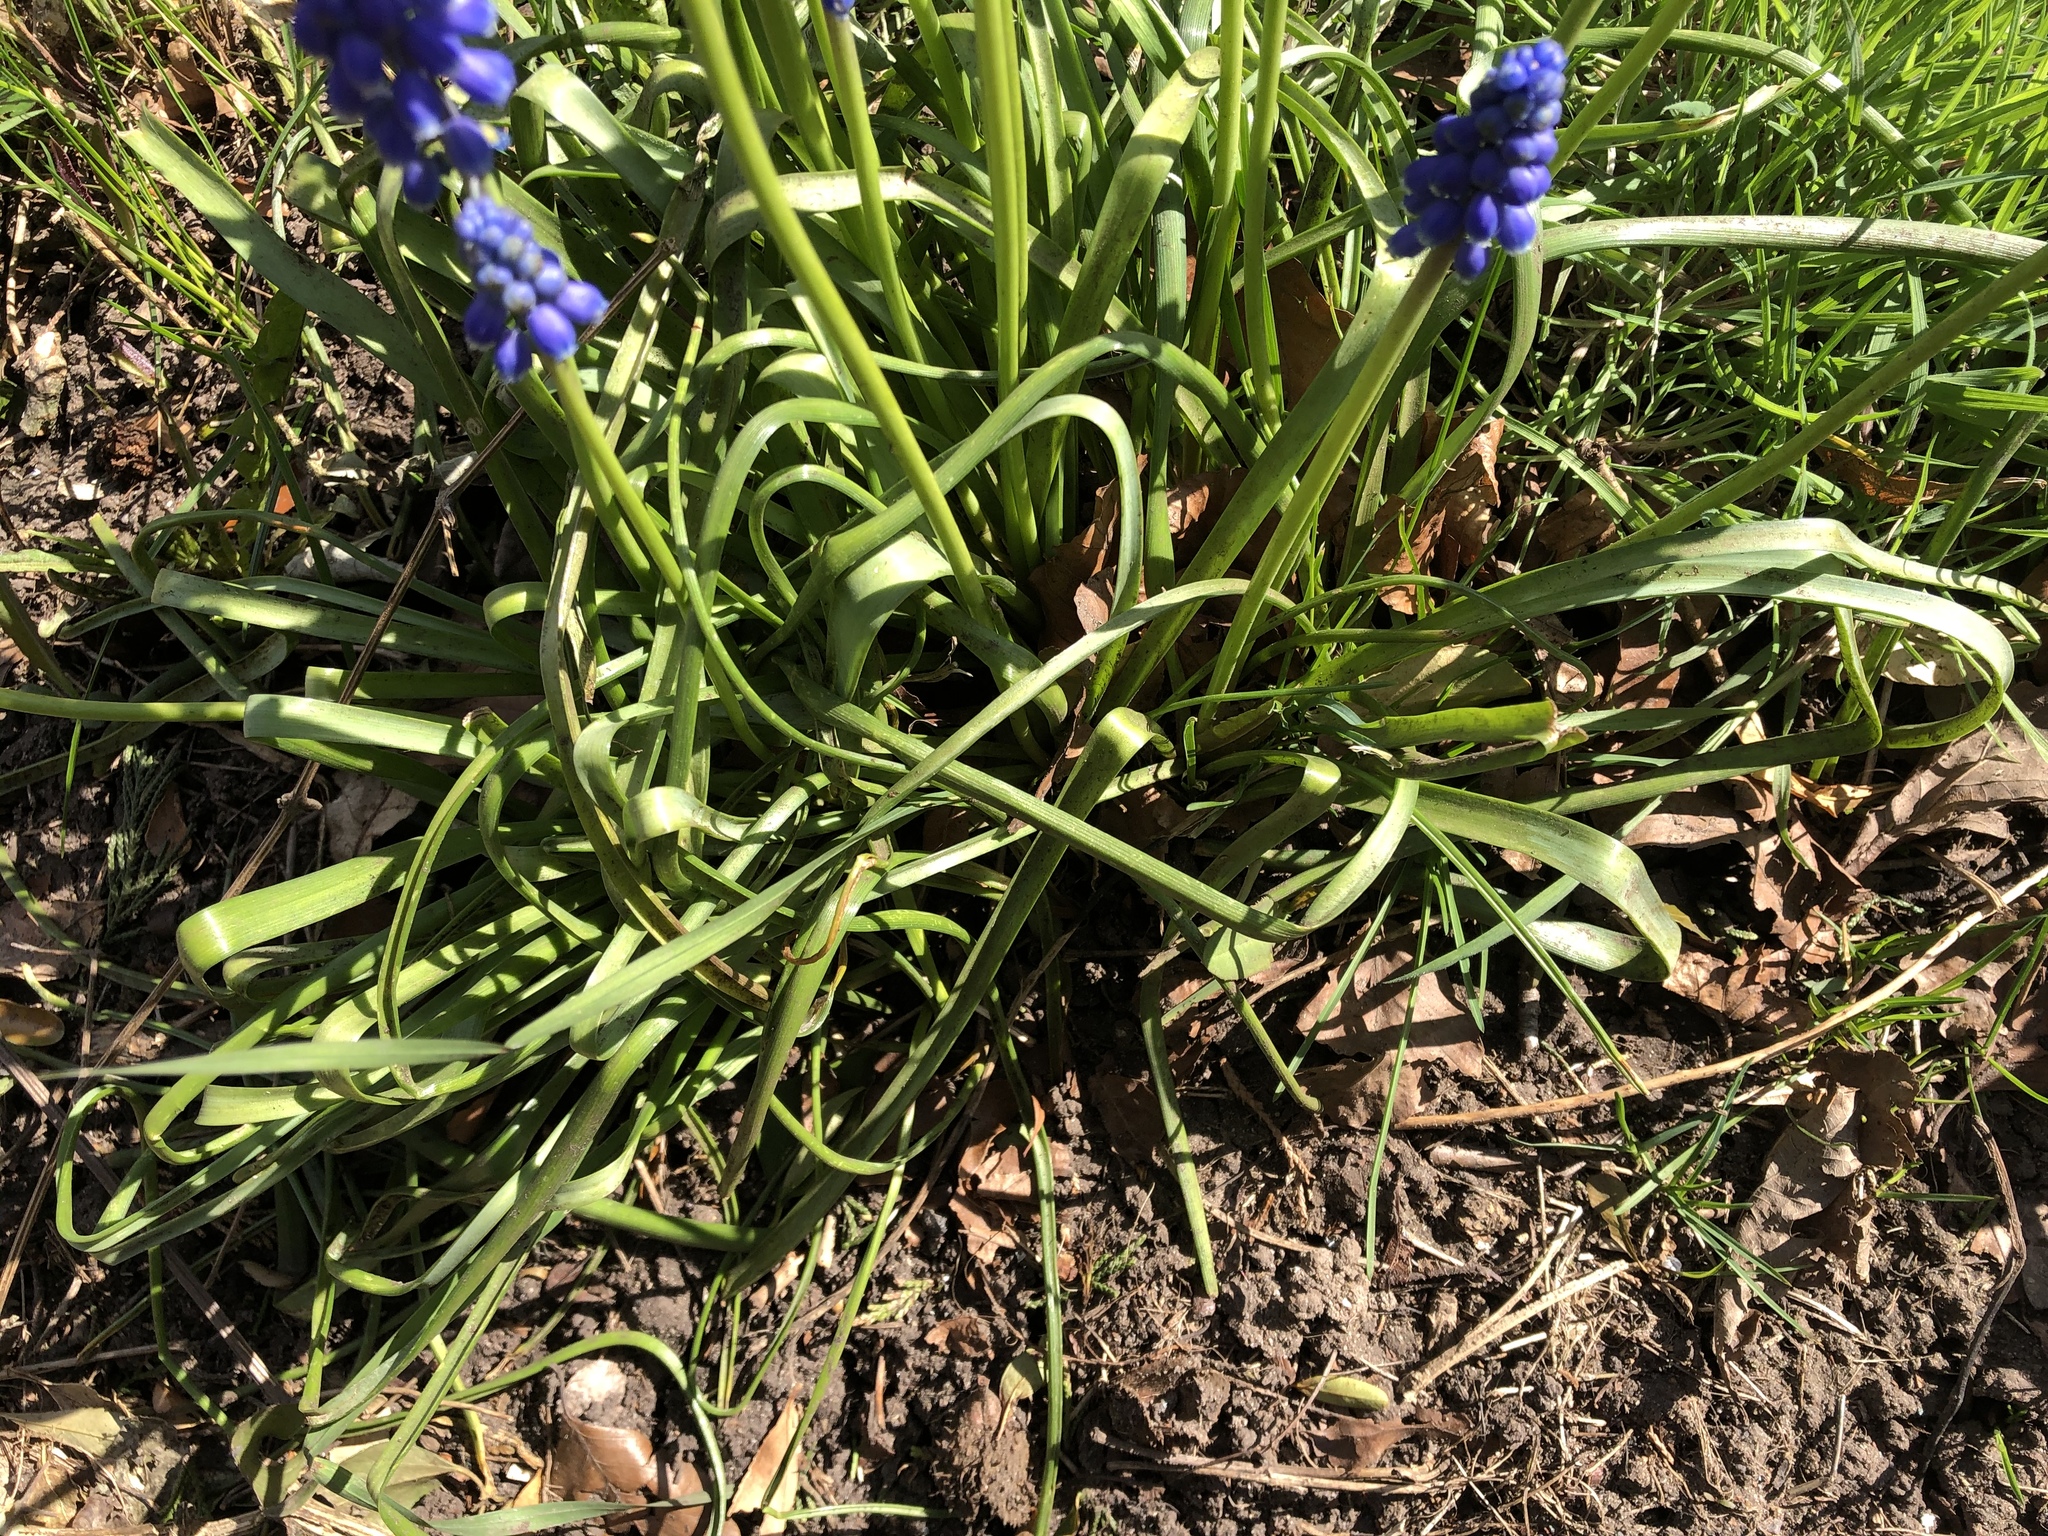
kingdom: Plantae
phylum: Tracheophyta
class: Liliopsida
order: Asparagales
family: Asparagaceae
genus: Muscari
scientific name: Muscari armeniacum
